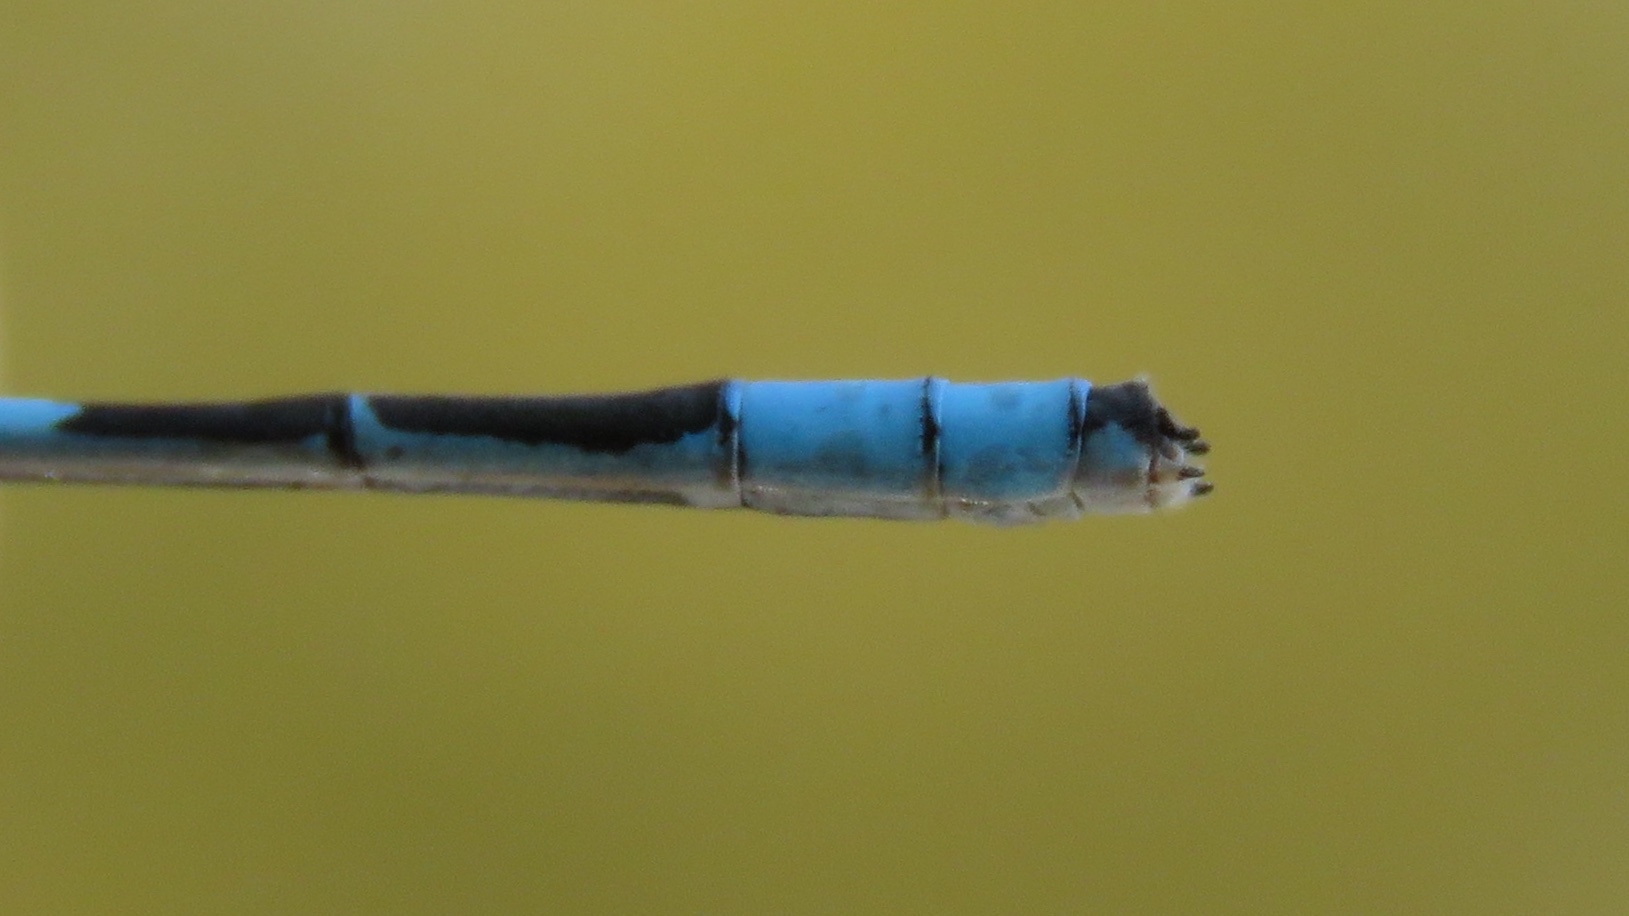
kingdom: Animalia
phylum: Arthropoda
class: Insecta
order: Odonata
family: Coenagrionidae
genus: Enallagma
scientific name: Enallagma hageni
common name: Hagen's bluet
